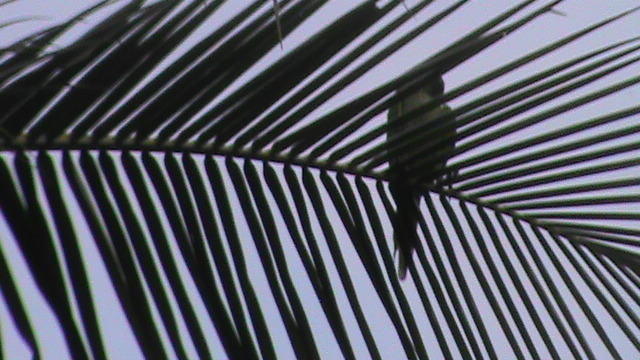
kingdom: Animalia
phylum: Chordata
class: Aves
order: Psittaciformes
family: Psittacidae
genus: Psittacula
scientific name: Psittacula krameri
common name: Rose-ringed parakeet
